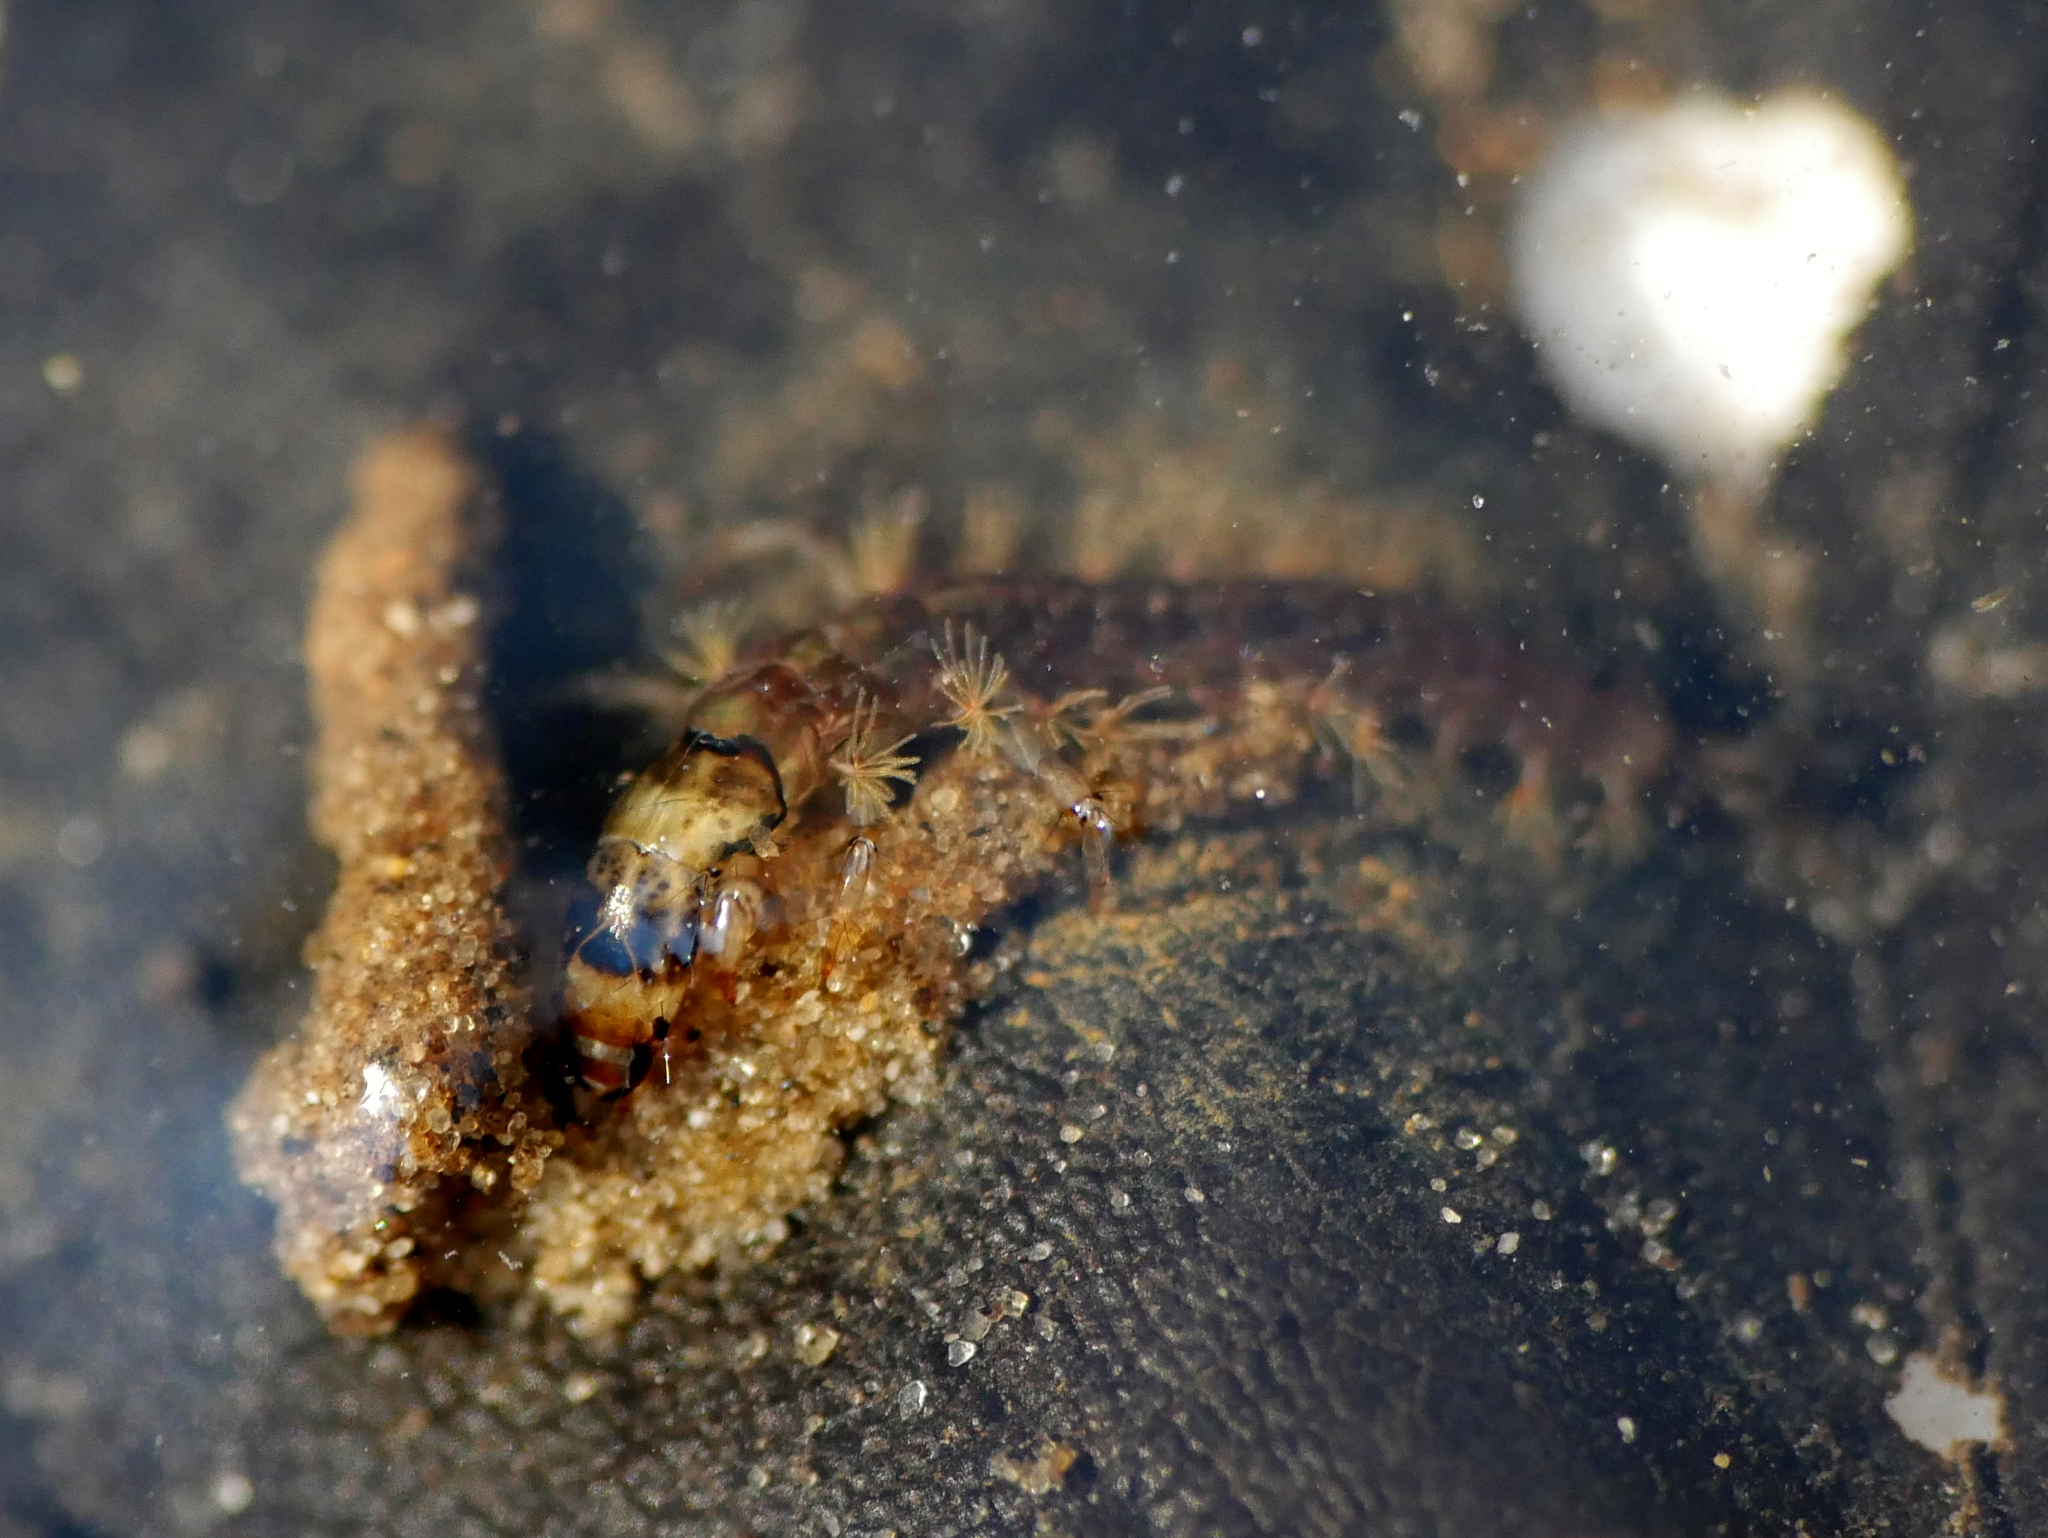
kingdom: Animalia
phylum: Arthropoda
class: Insecta
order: Trichoptera
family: Rhyacophilidae
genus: Rhyacophila
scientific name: Rhyacophila fasciata
